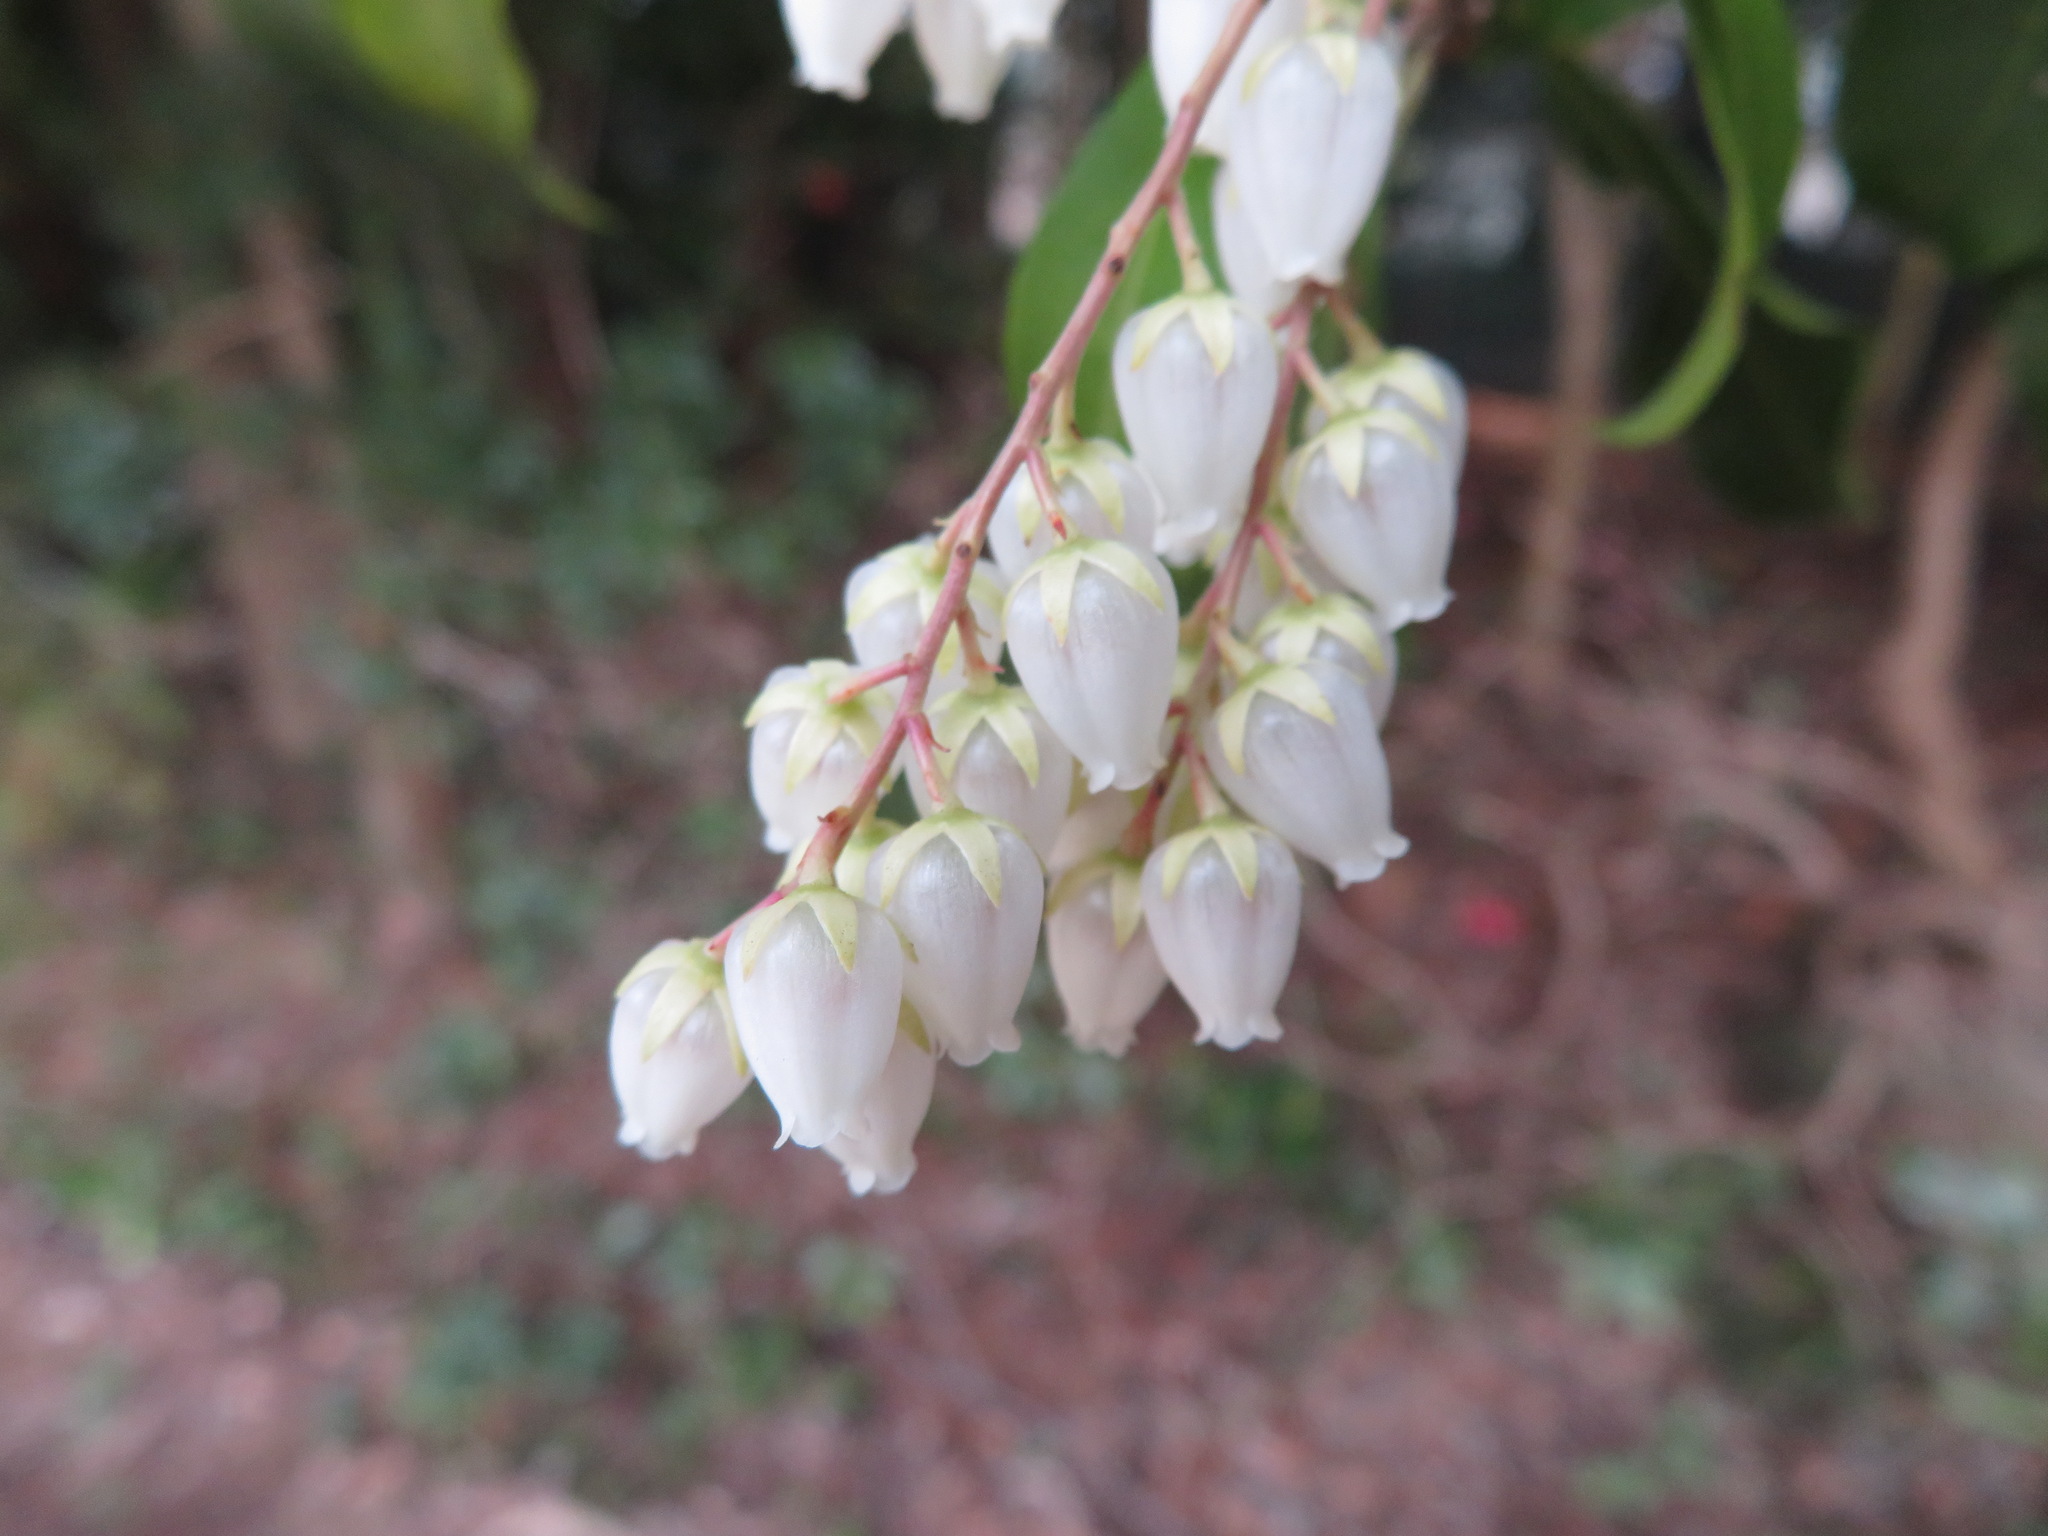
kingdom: Plantae
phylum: Tracheophyta
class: Magnoliopsida
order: Ericales
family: Ericaceae
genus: Pieris
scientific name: Pieris japonica
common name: Japanese pieris
